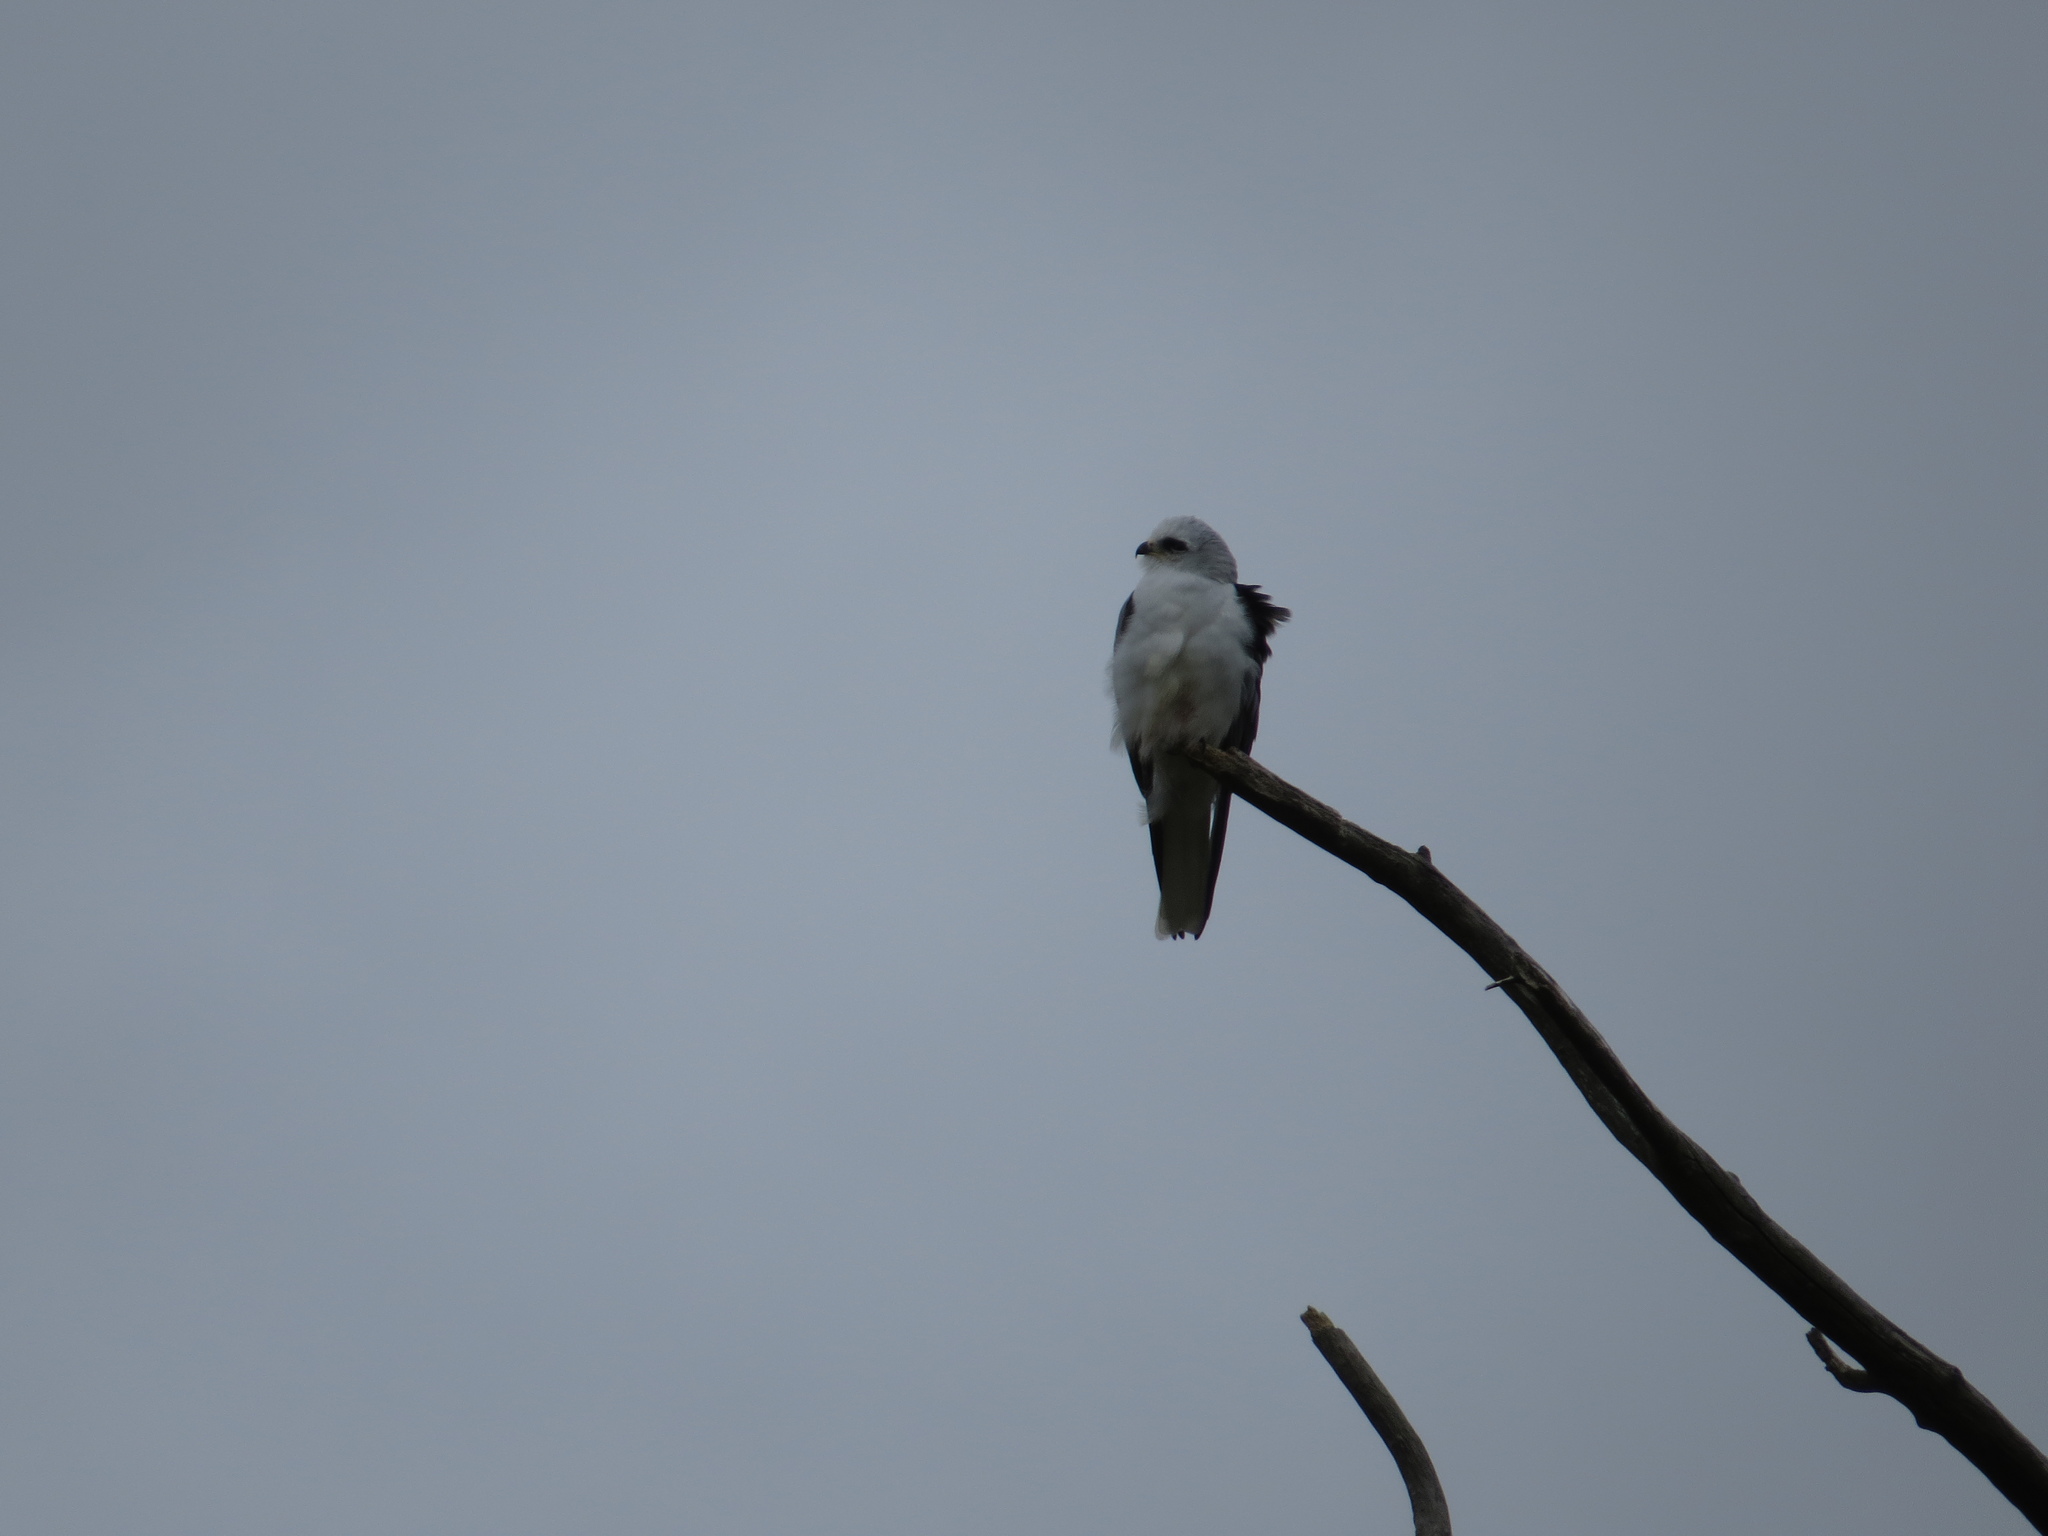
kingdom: Animalia
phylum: Chordata
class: Aves
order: Accipitriformes
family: Accipitridae
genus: Elanus
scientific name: Elanus leucurus
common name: White-tailed kite
